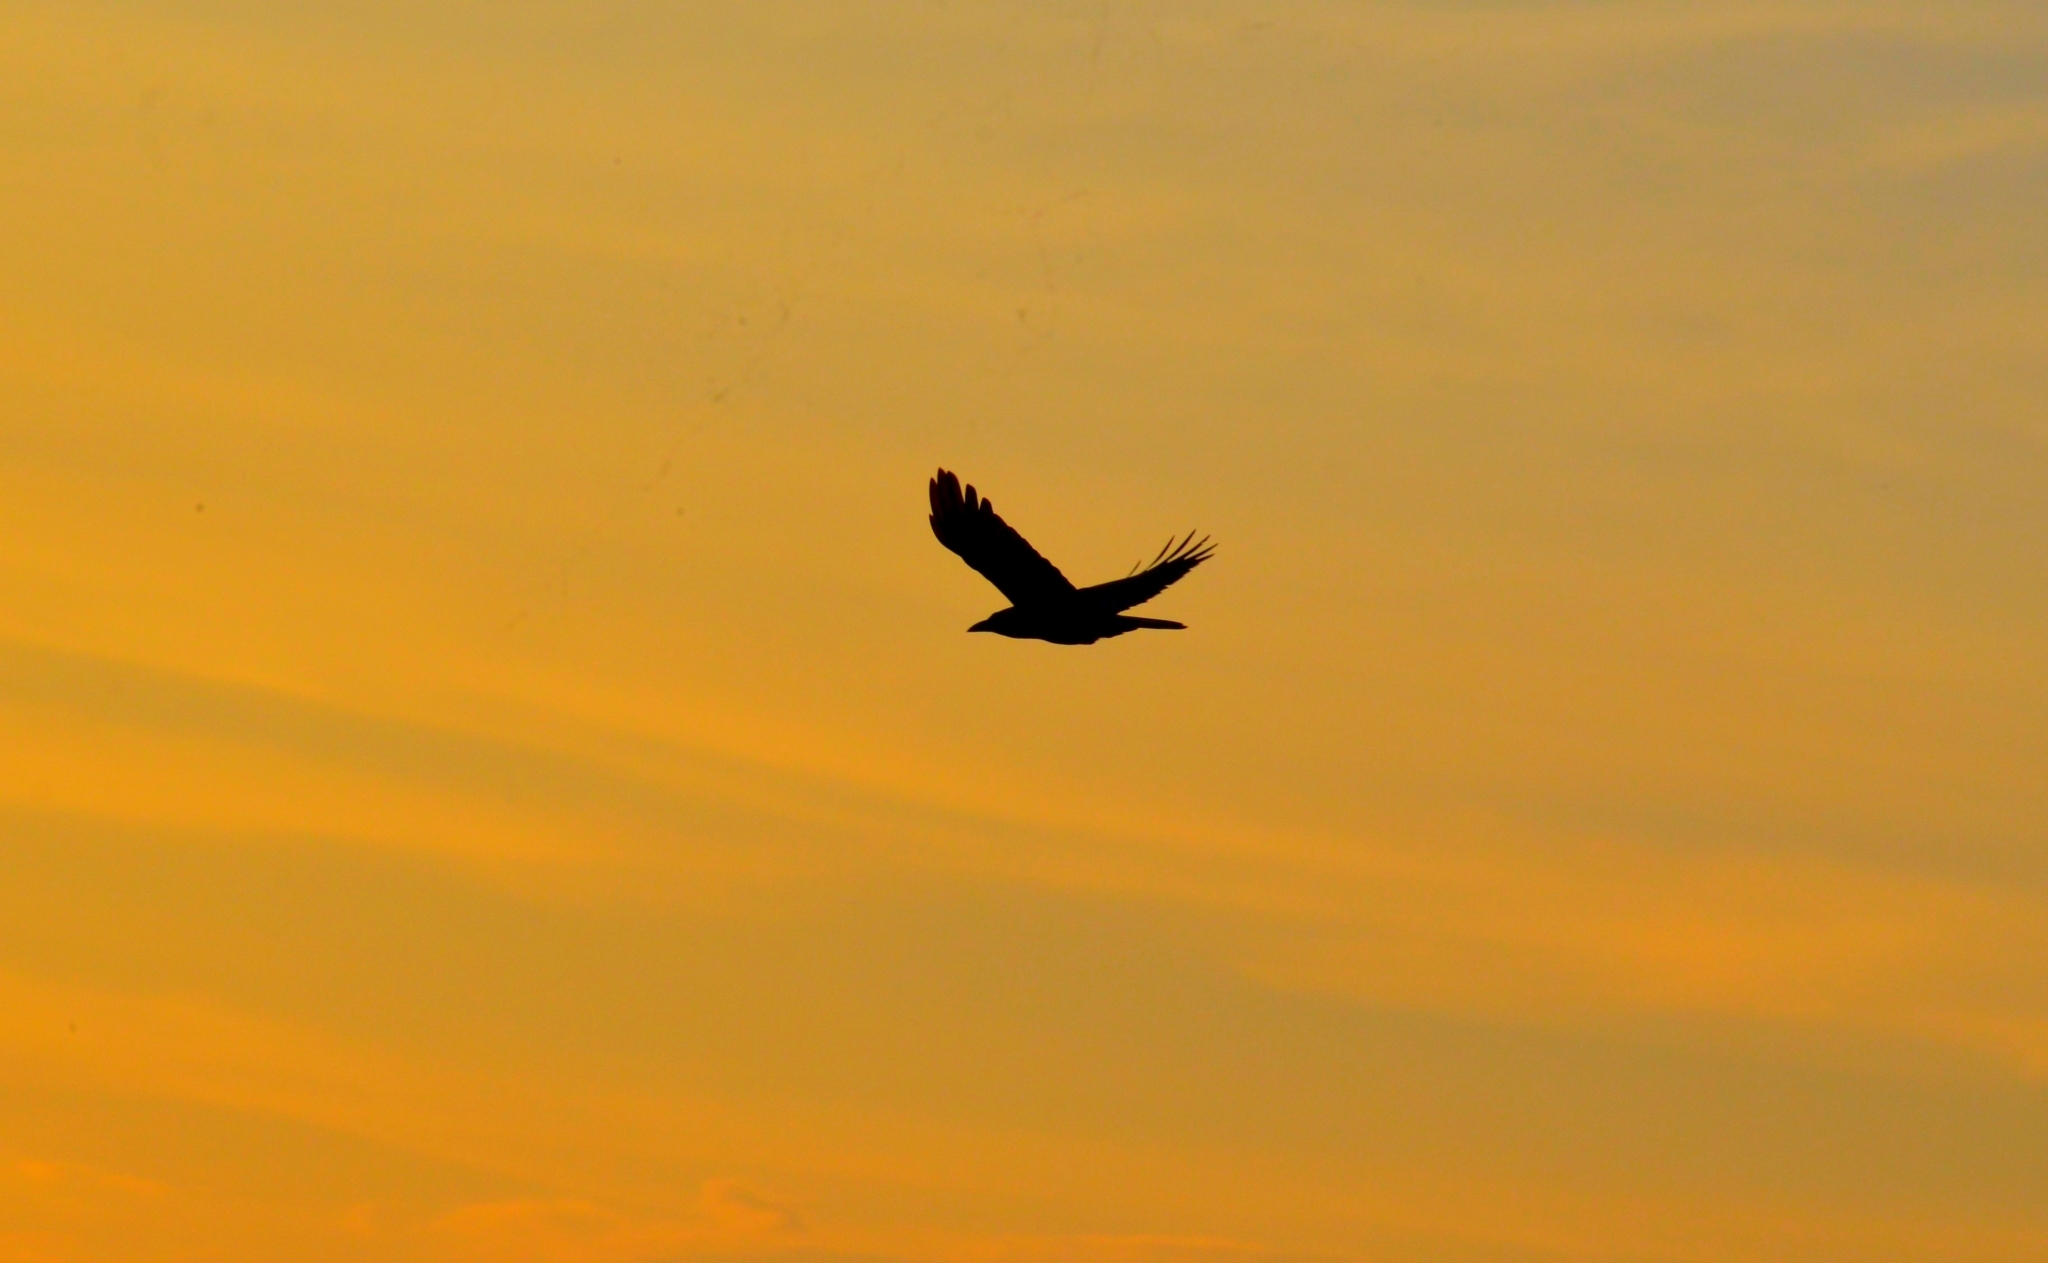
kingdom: Animalia
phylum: Chordata
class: Aves
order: Passeriformes
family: Corvidae
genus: Corvus
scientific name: Corvus splendens
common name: House crow
